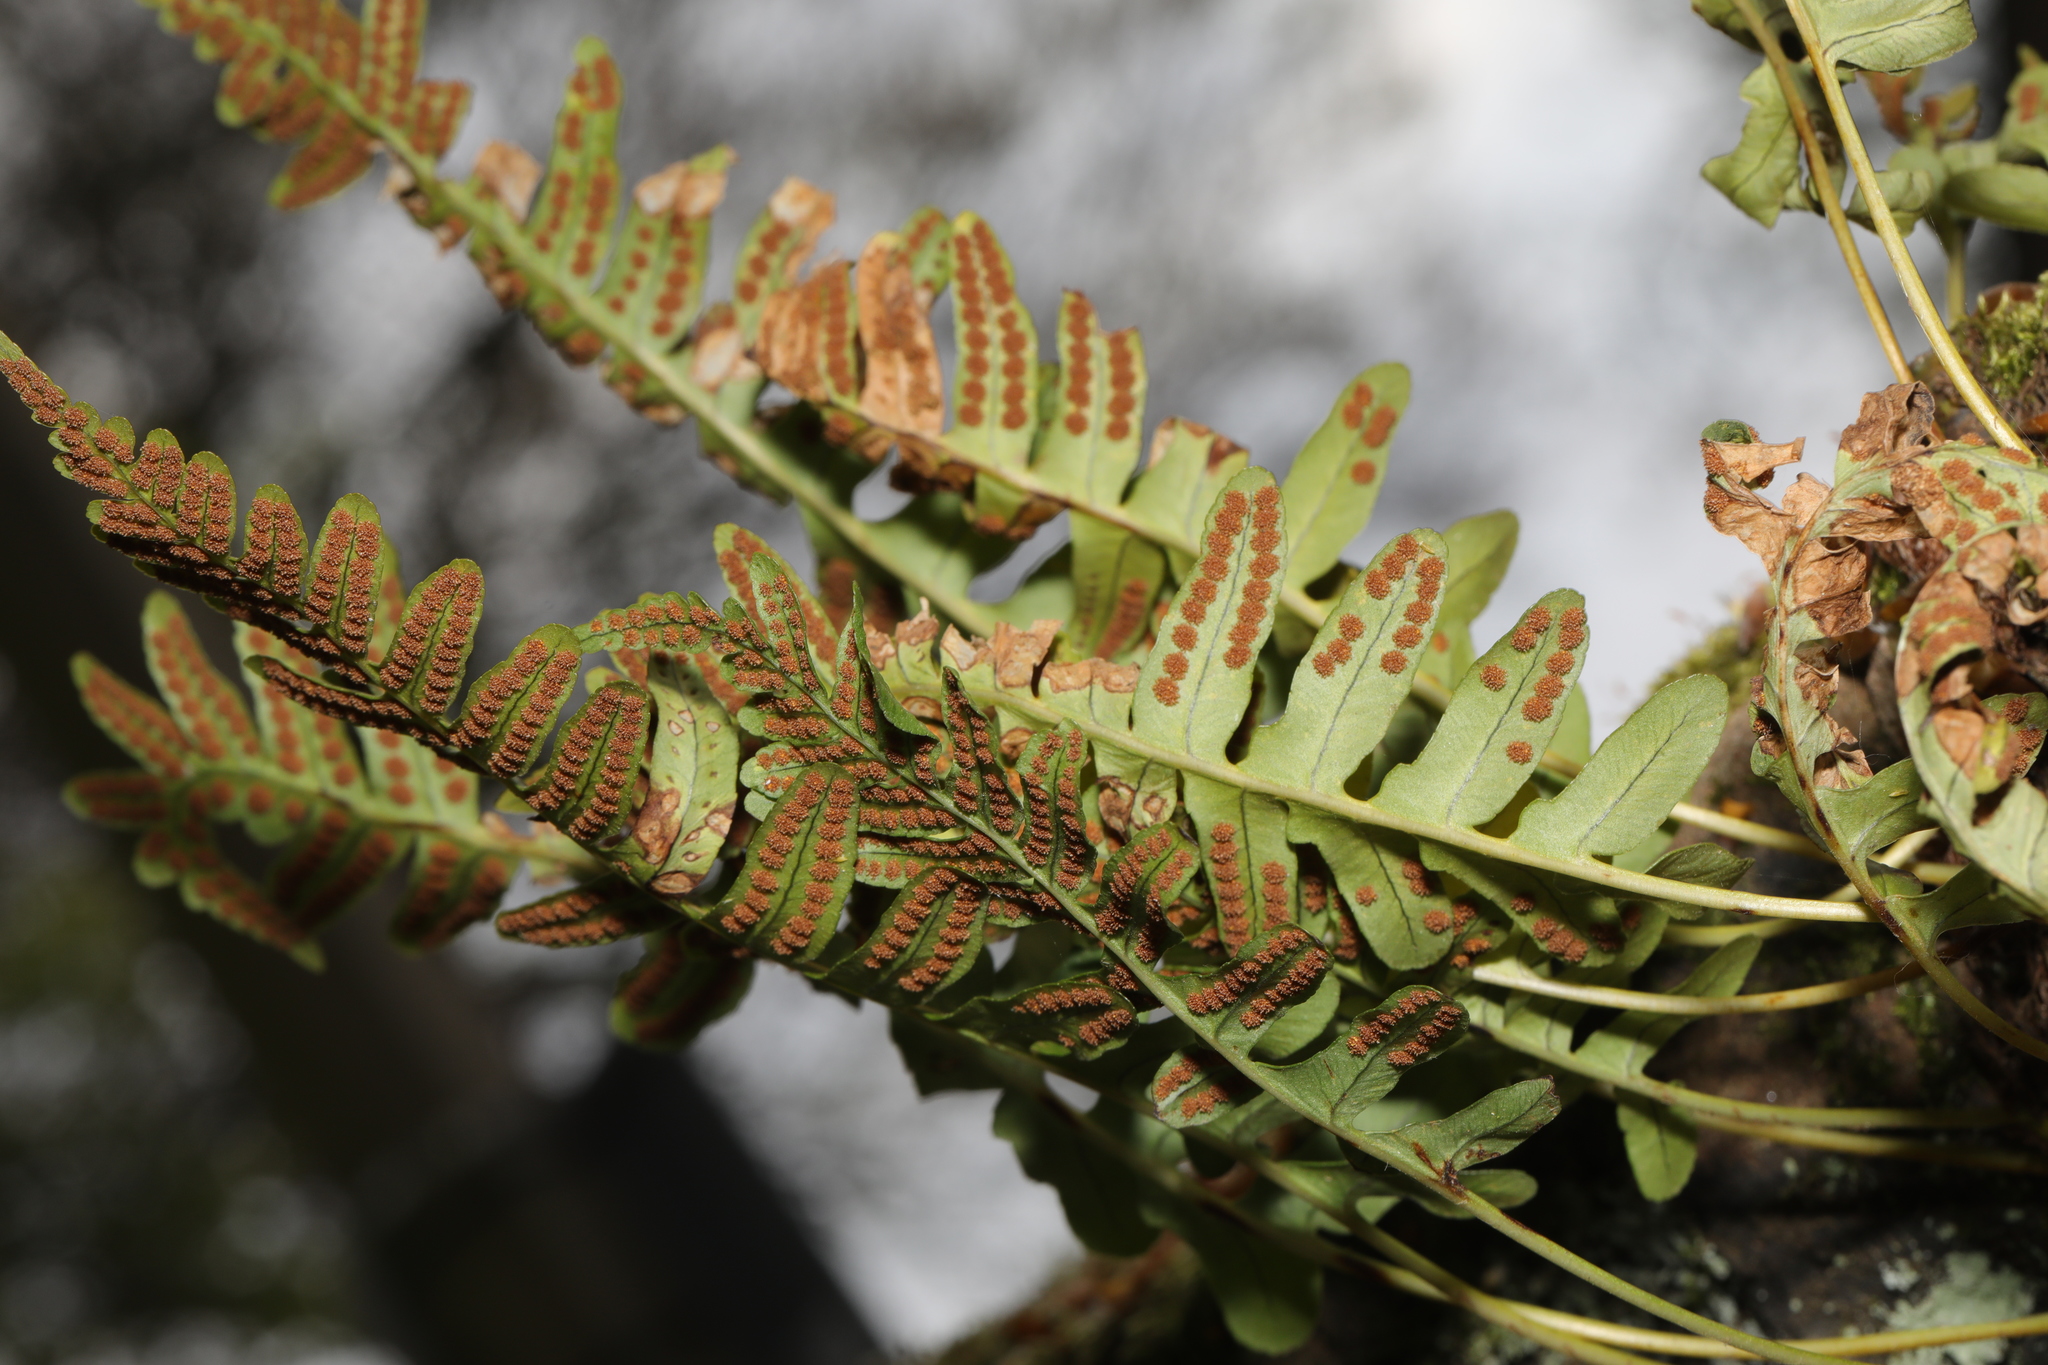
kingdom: Plantae
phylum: Tracheophyta
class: Polypodiopsida
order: Polypodiales
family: Polypodiaceae
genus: Polypodium
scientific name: Polypodium vulgare
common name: Common polypody
